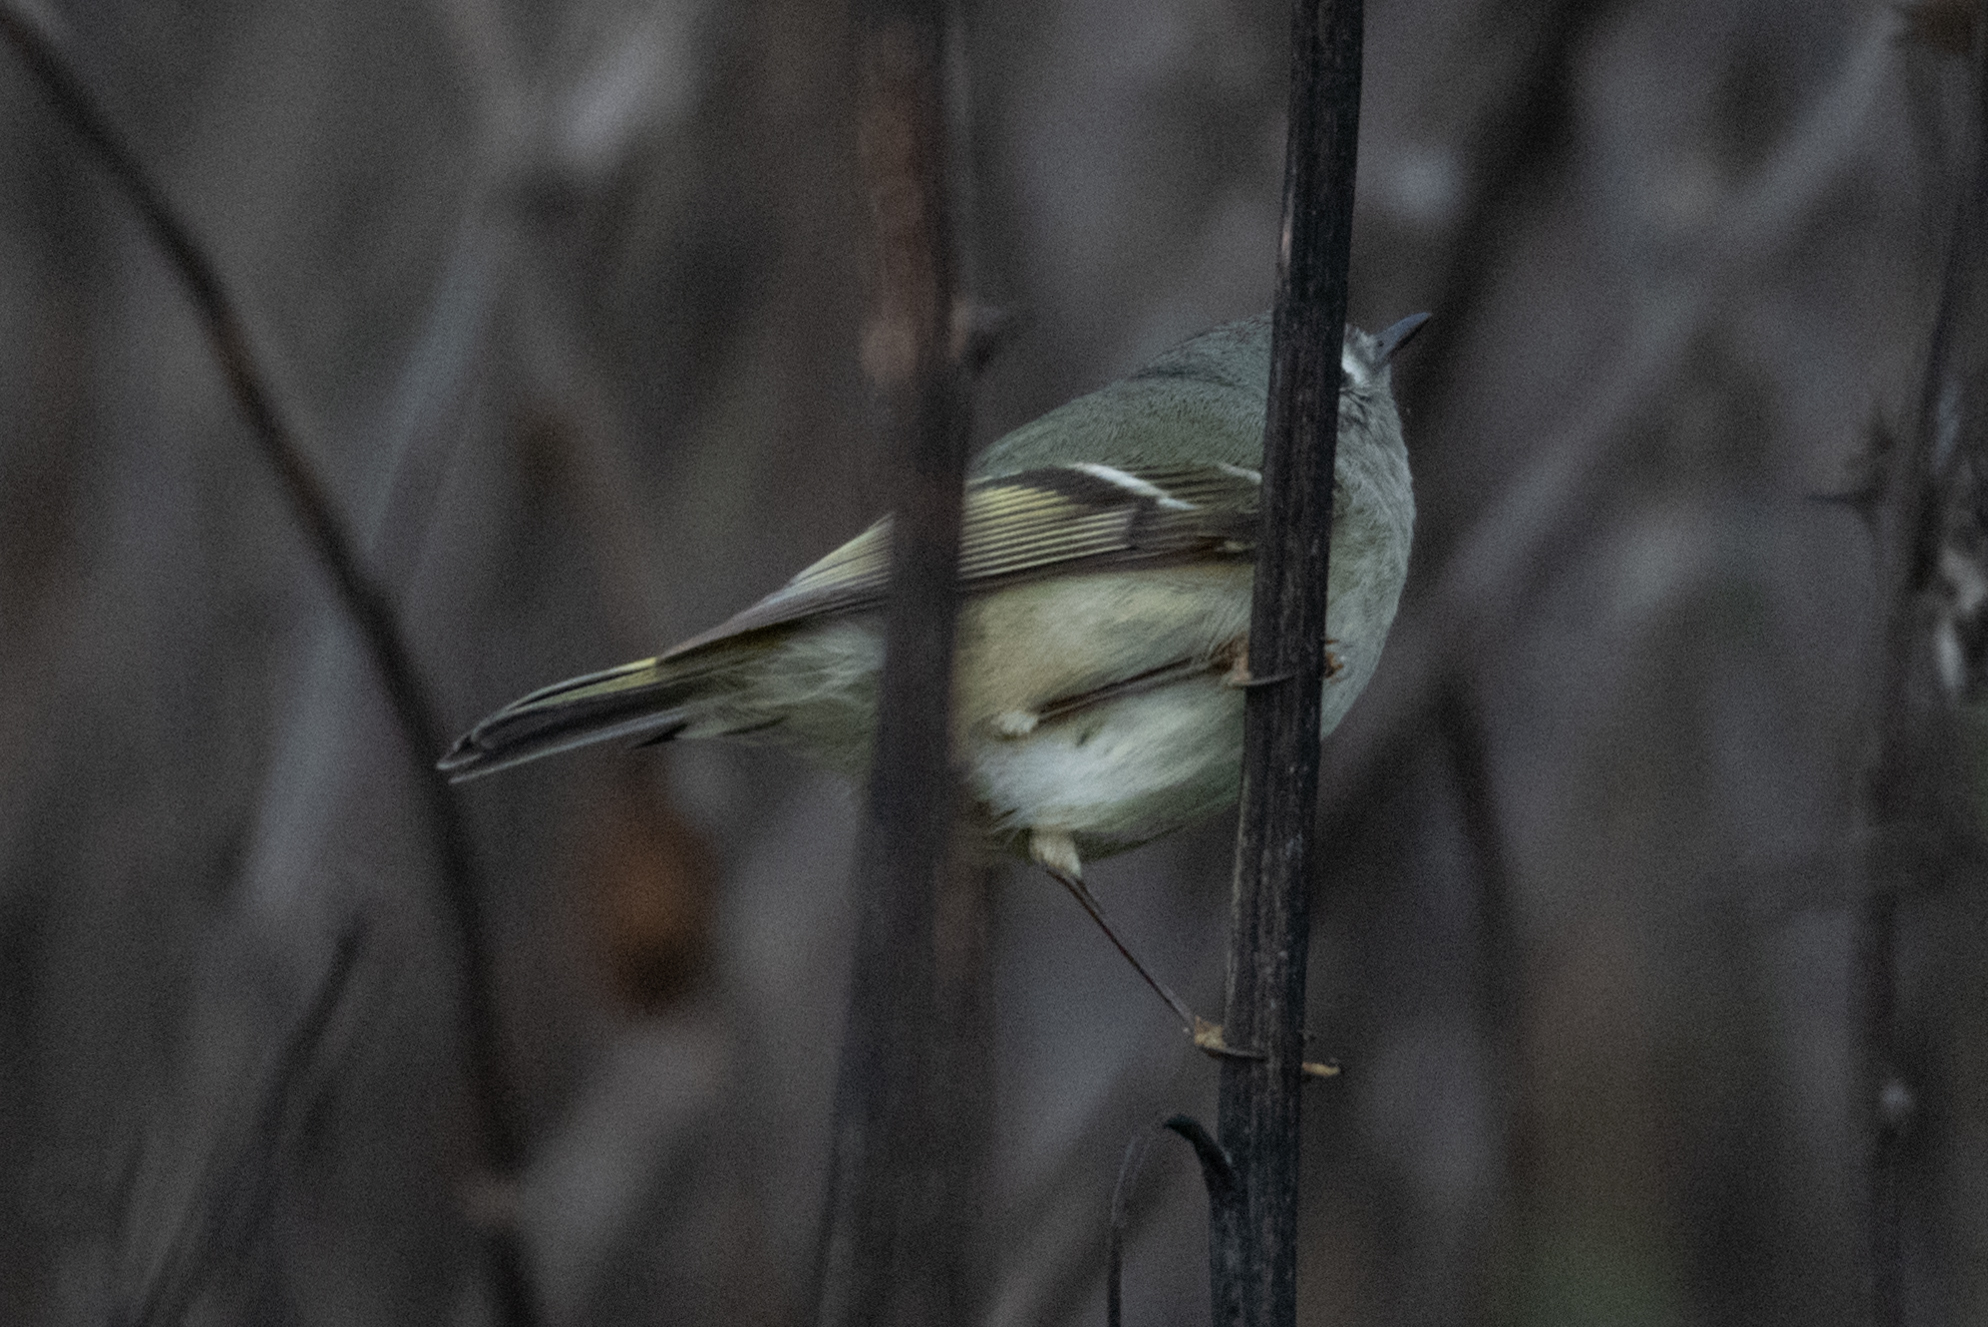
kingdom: Animalia
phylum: Chordata
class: Aves
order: Passeriformes
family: Regulidae
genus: Regulus
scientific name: Regulus calendula
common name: Ruby-crowned kinglet
